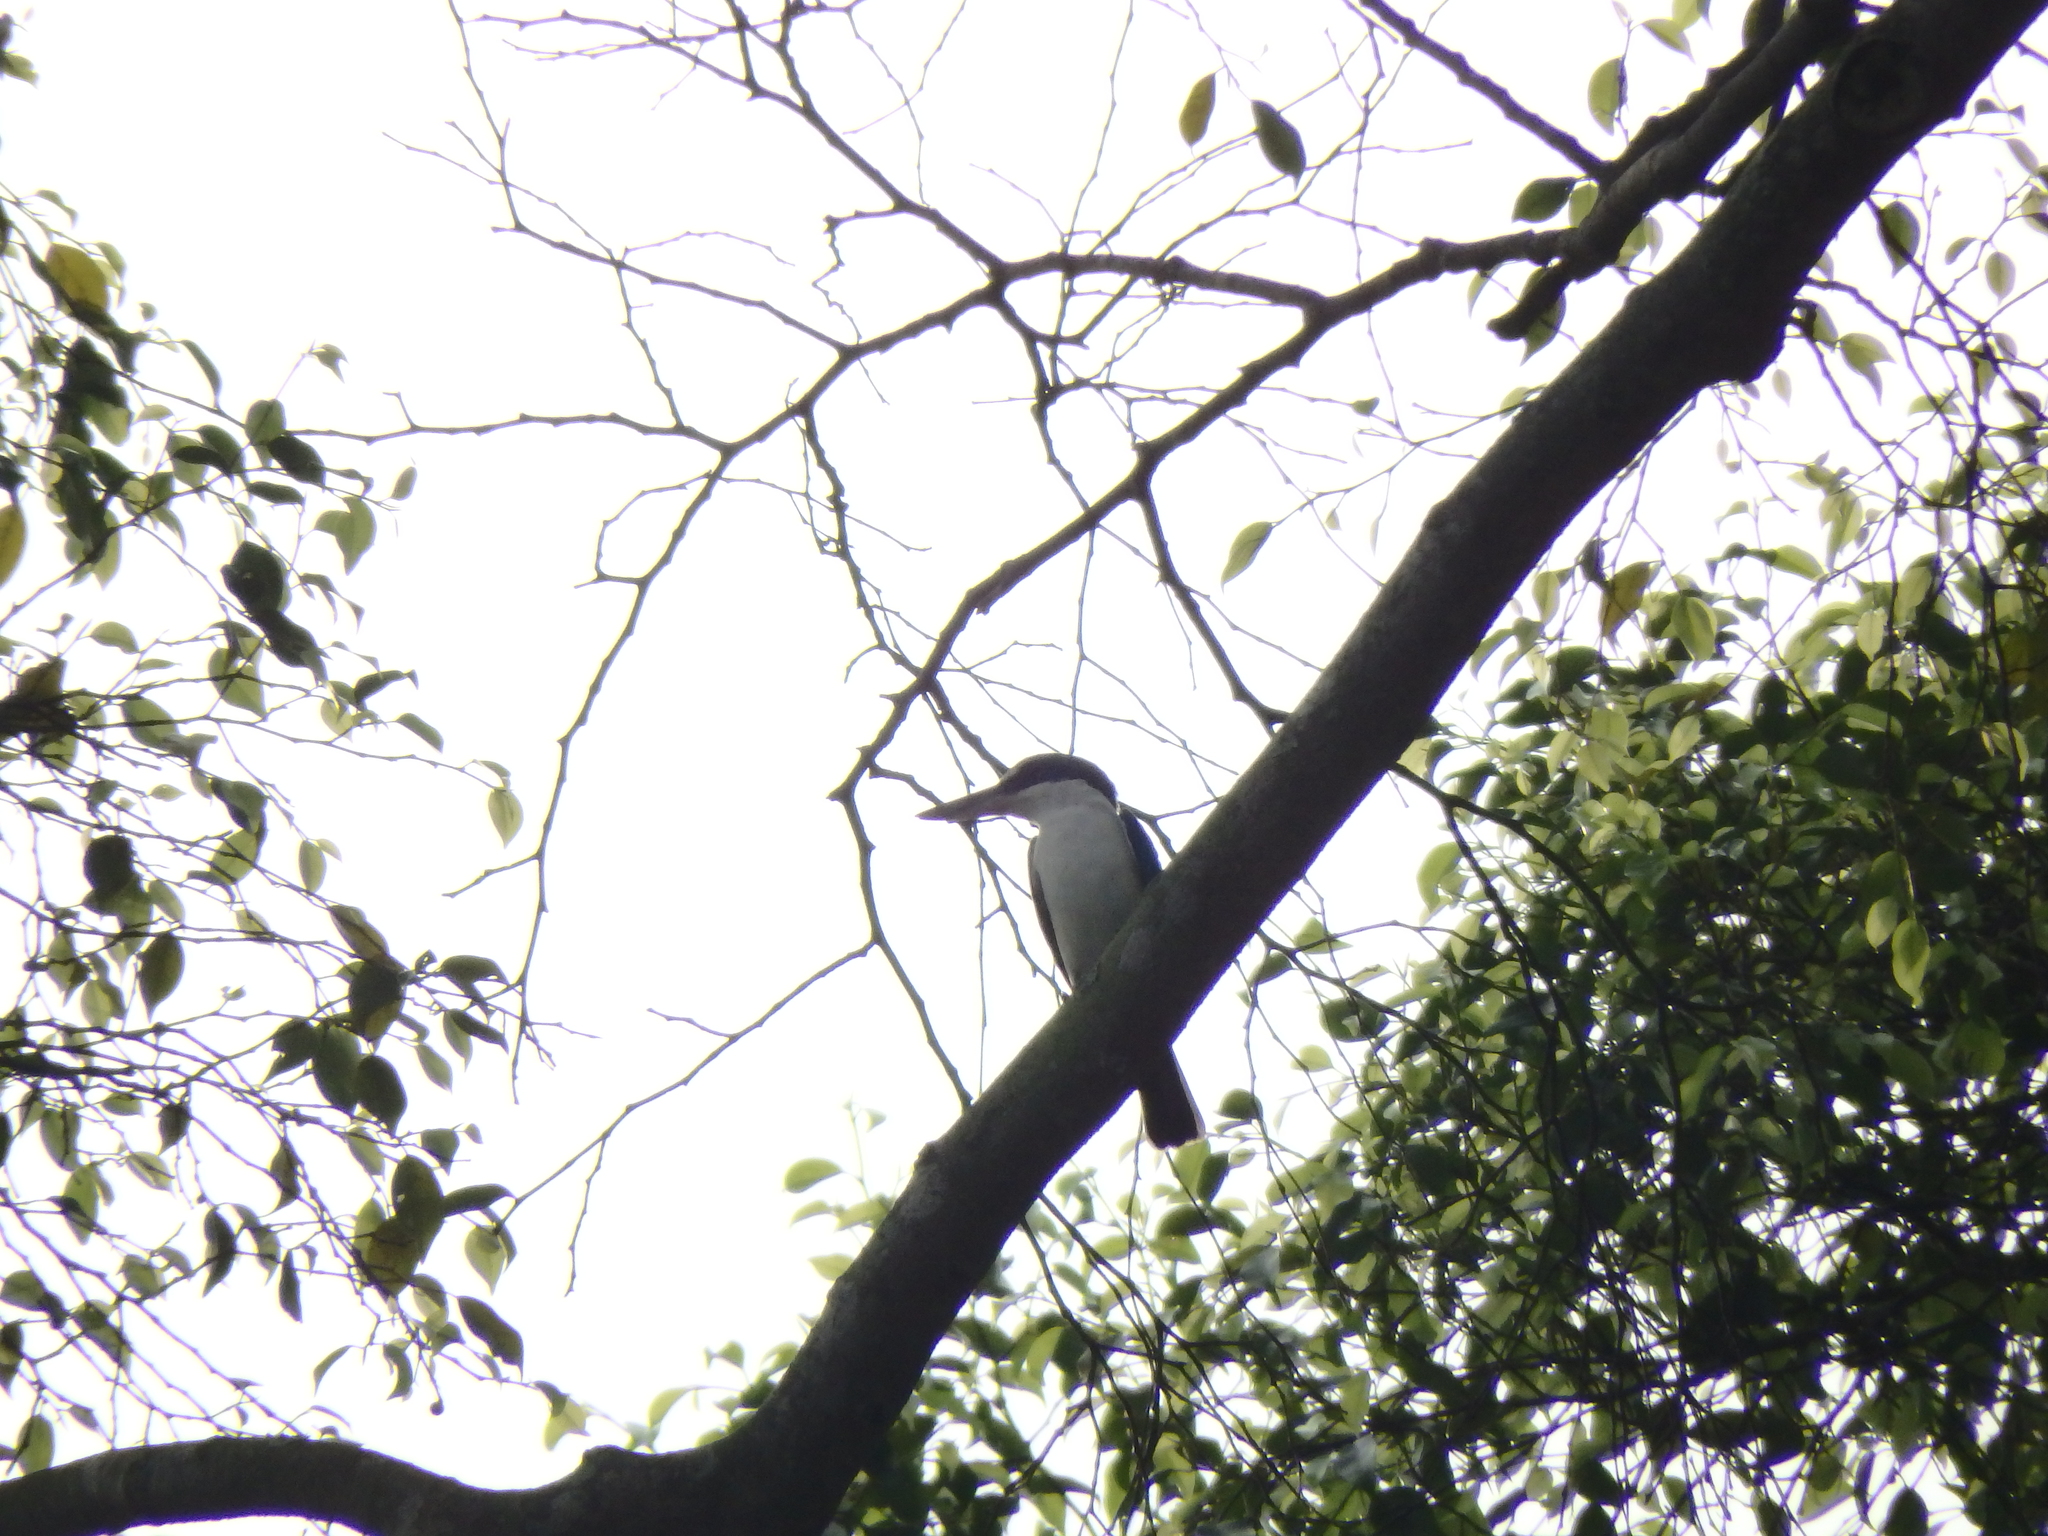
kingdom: Animalia
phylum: Chordata
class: Aves
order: Coraciiformes
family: Alcedinidae
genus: Todiramphus
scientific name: Todiramphus chloris
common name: Collared kingfisher
